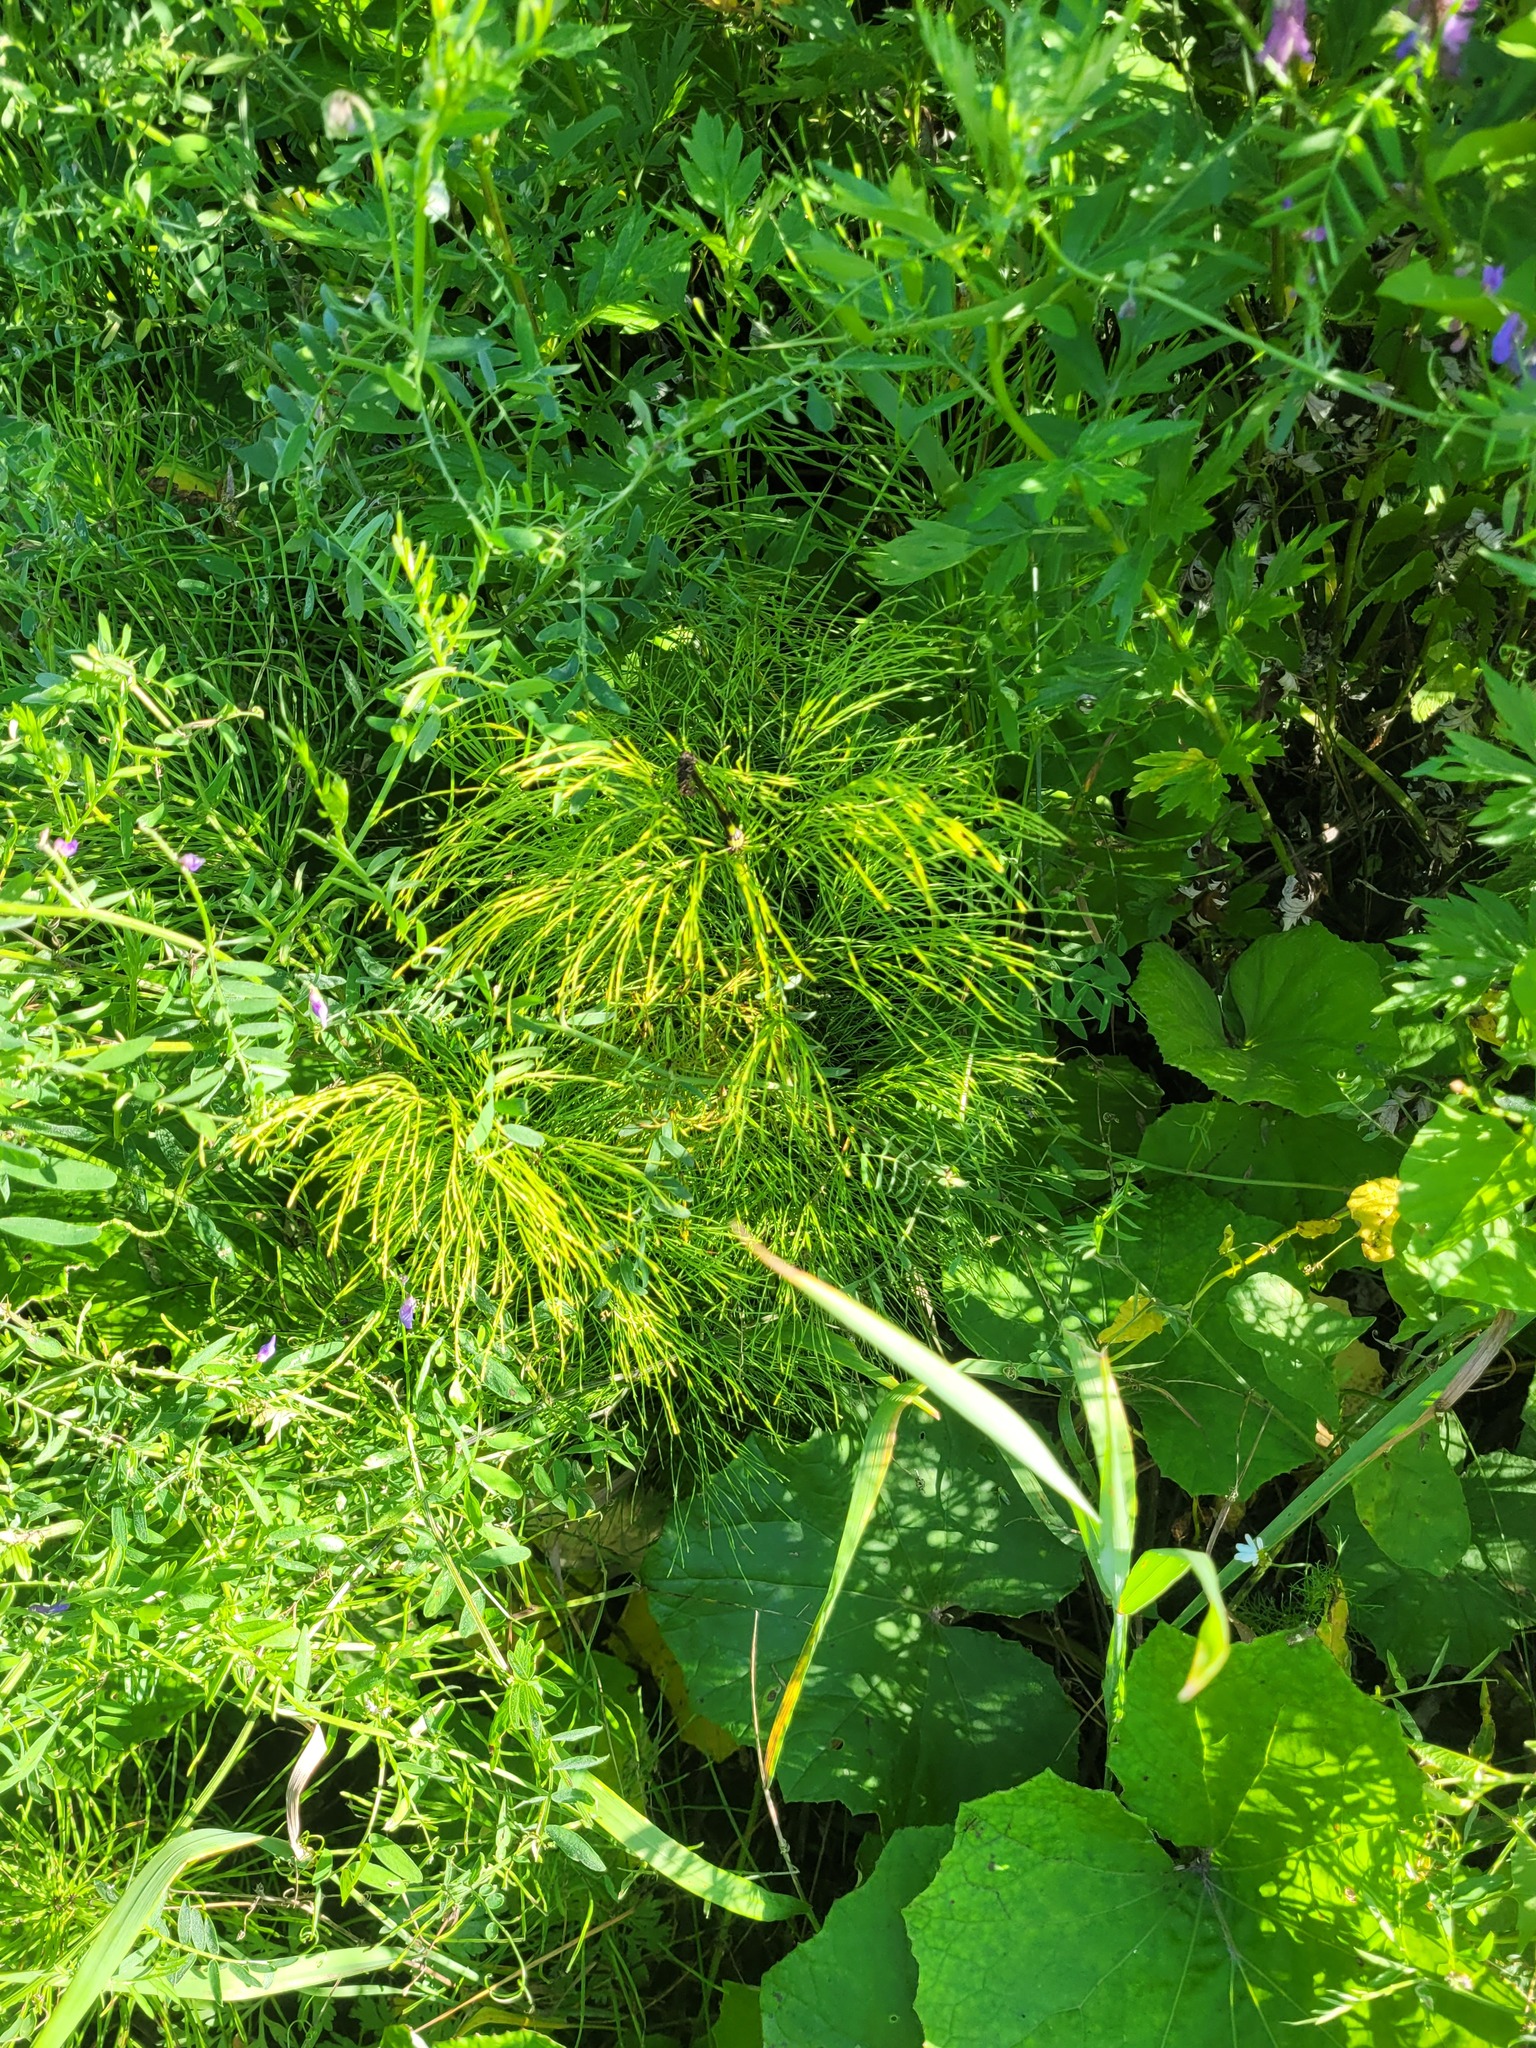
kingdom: Plantae
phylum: Tracheophyta
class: Polypodiopsida
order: Equisetales
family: Equisetaceae
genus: Equisetum
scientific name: Equisetum sylvaticum
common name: Wood horsetail
